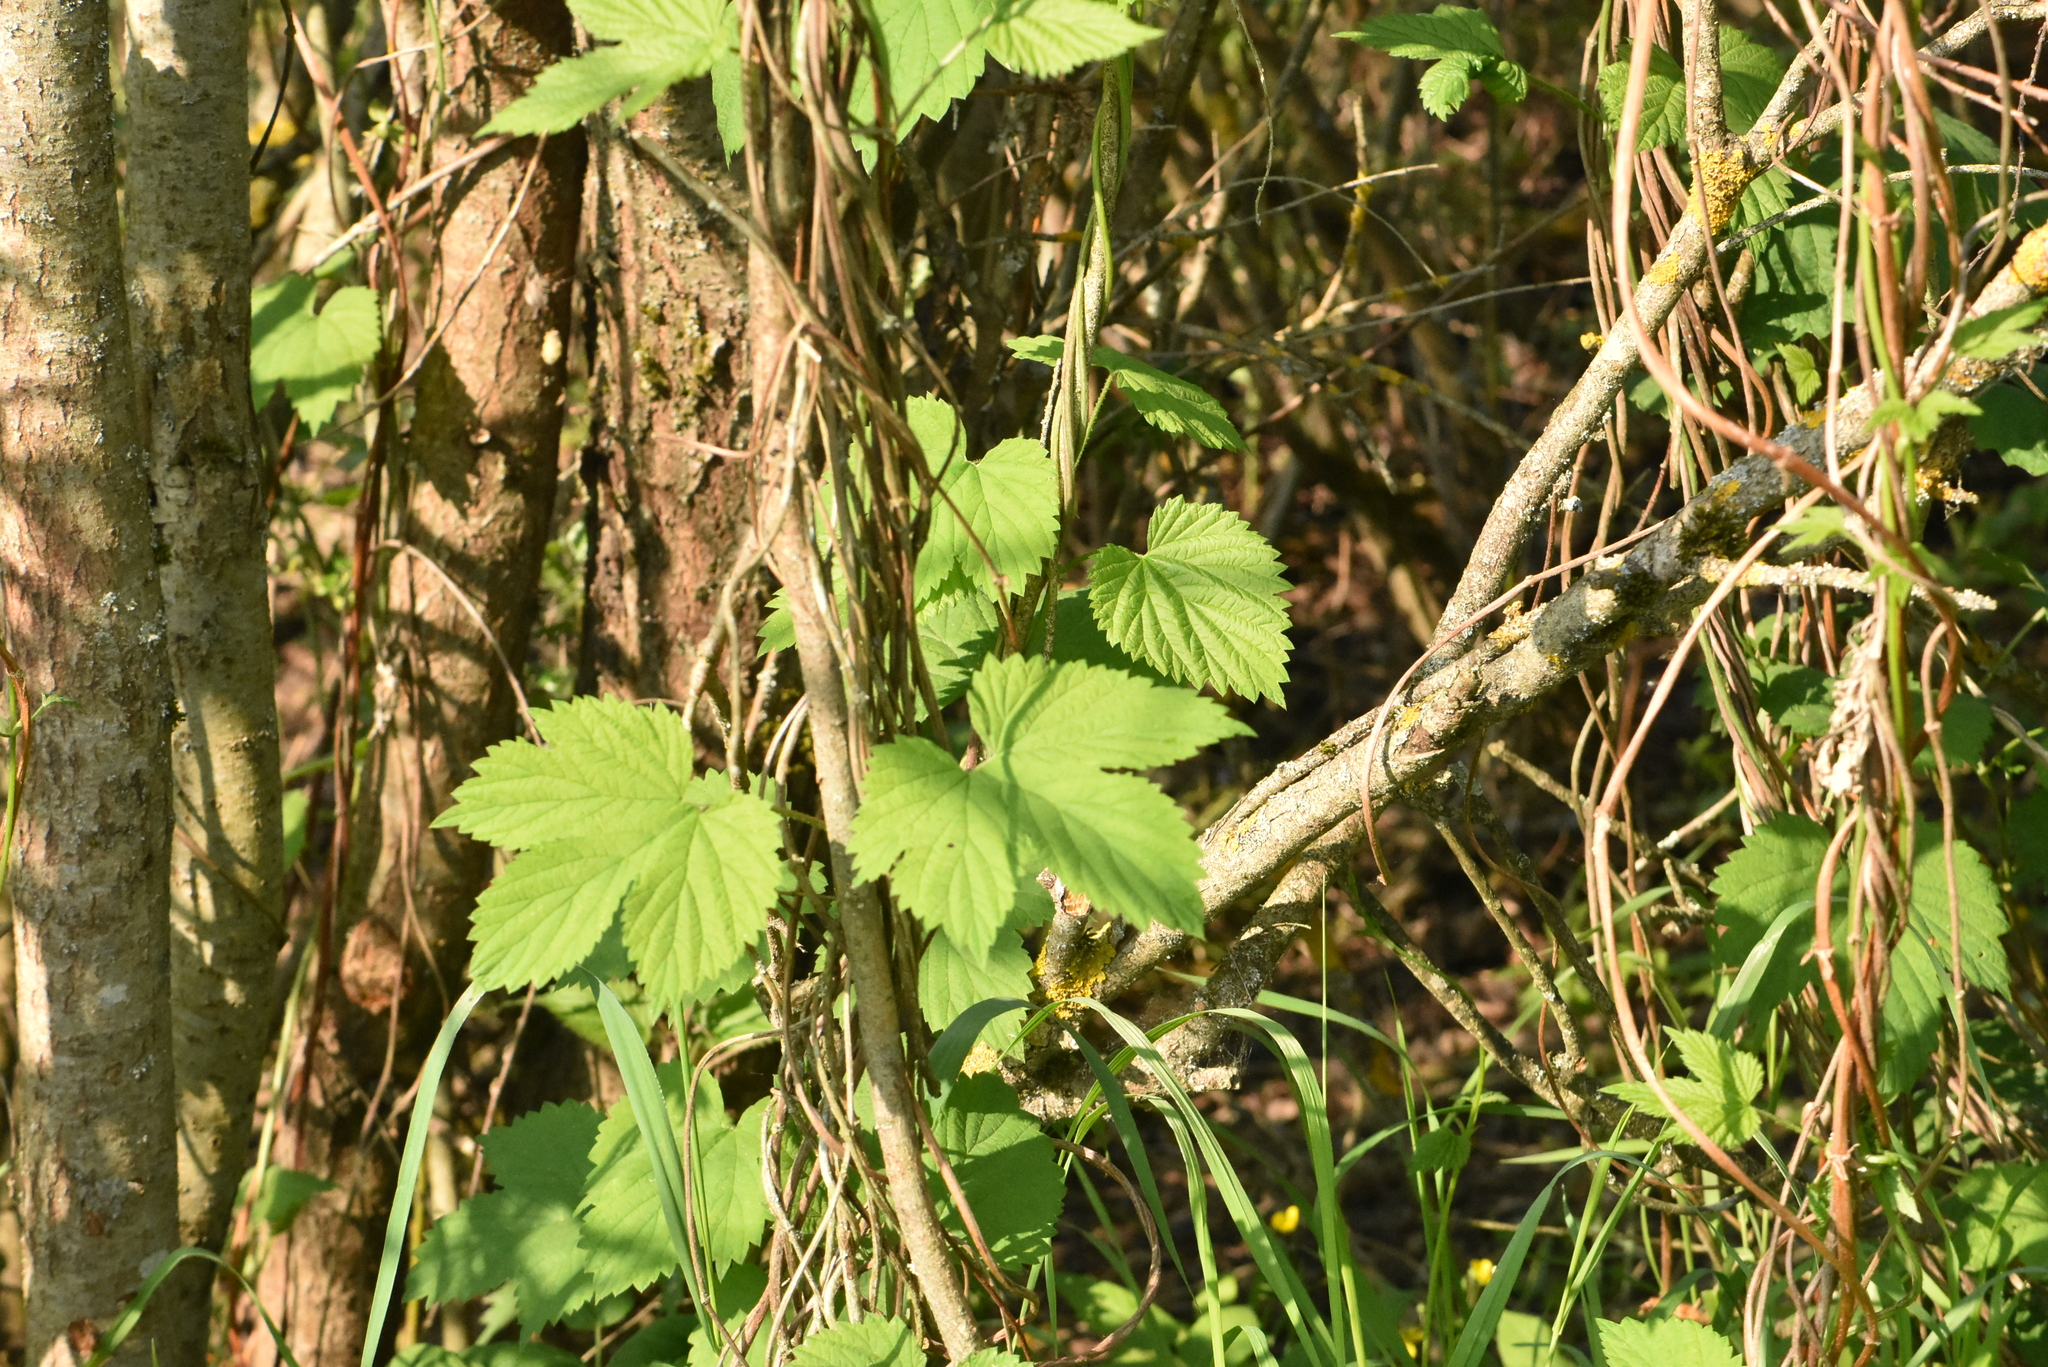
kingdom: Plantae
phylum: Tracheophyta
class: Magnoliopsida
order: Rosales
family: Cannabaceae
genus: Humulus
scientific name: Humulus lupulus
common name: Hop
